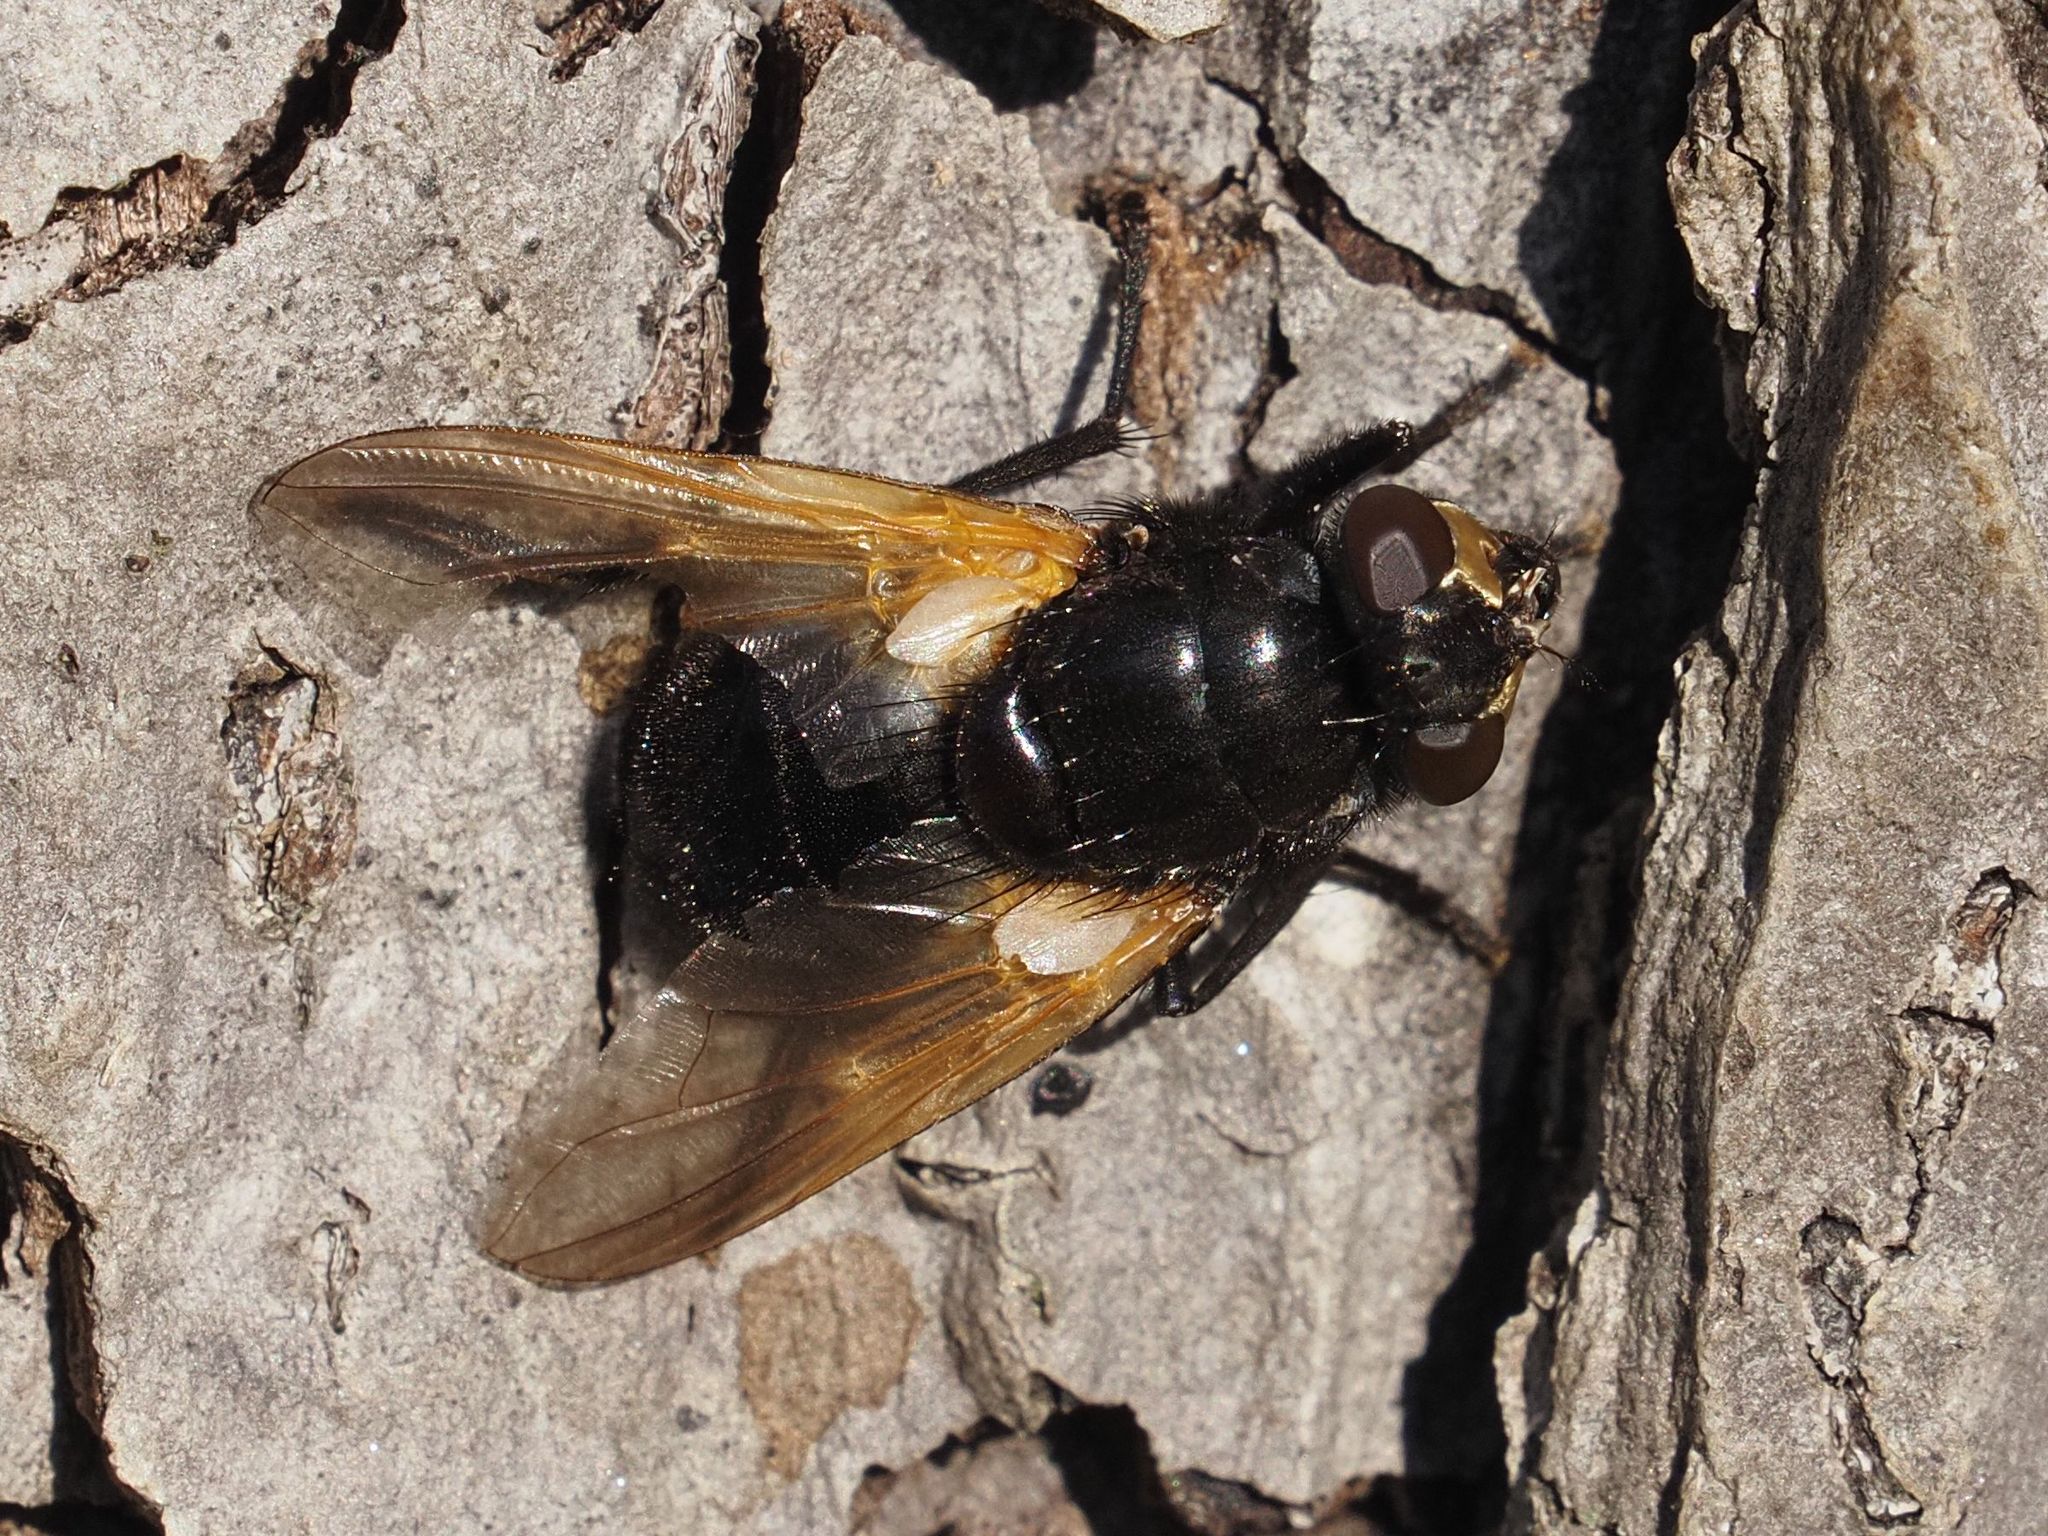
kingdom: Animalia
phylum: Arthropoda
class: Insecta
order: Diptera
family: Muscidae
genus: Mesembrina
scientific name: Mesembrina meridiana
